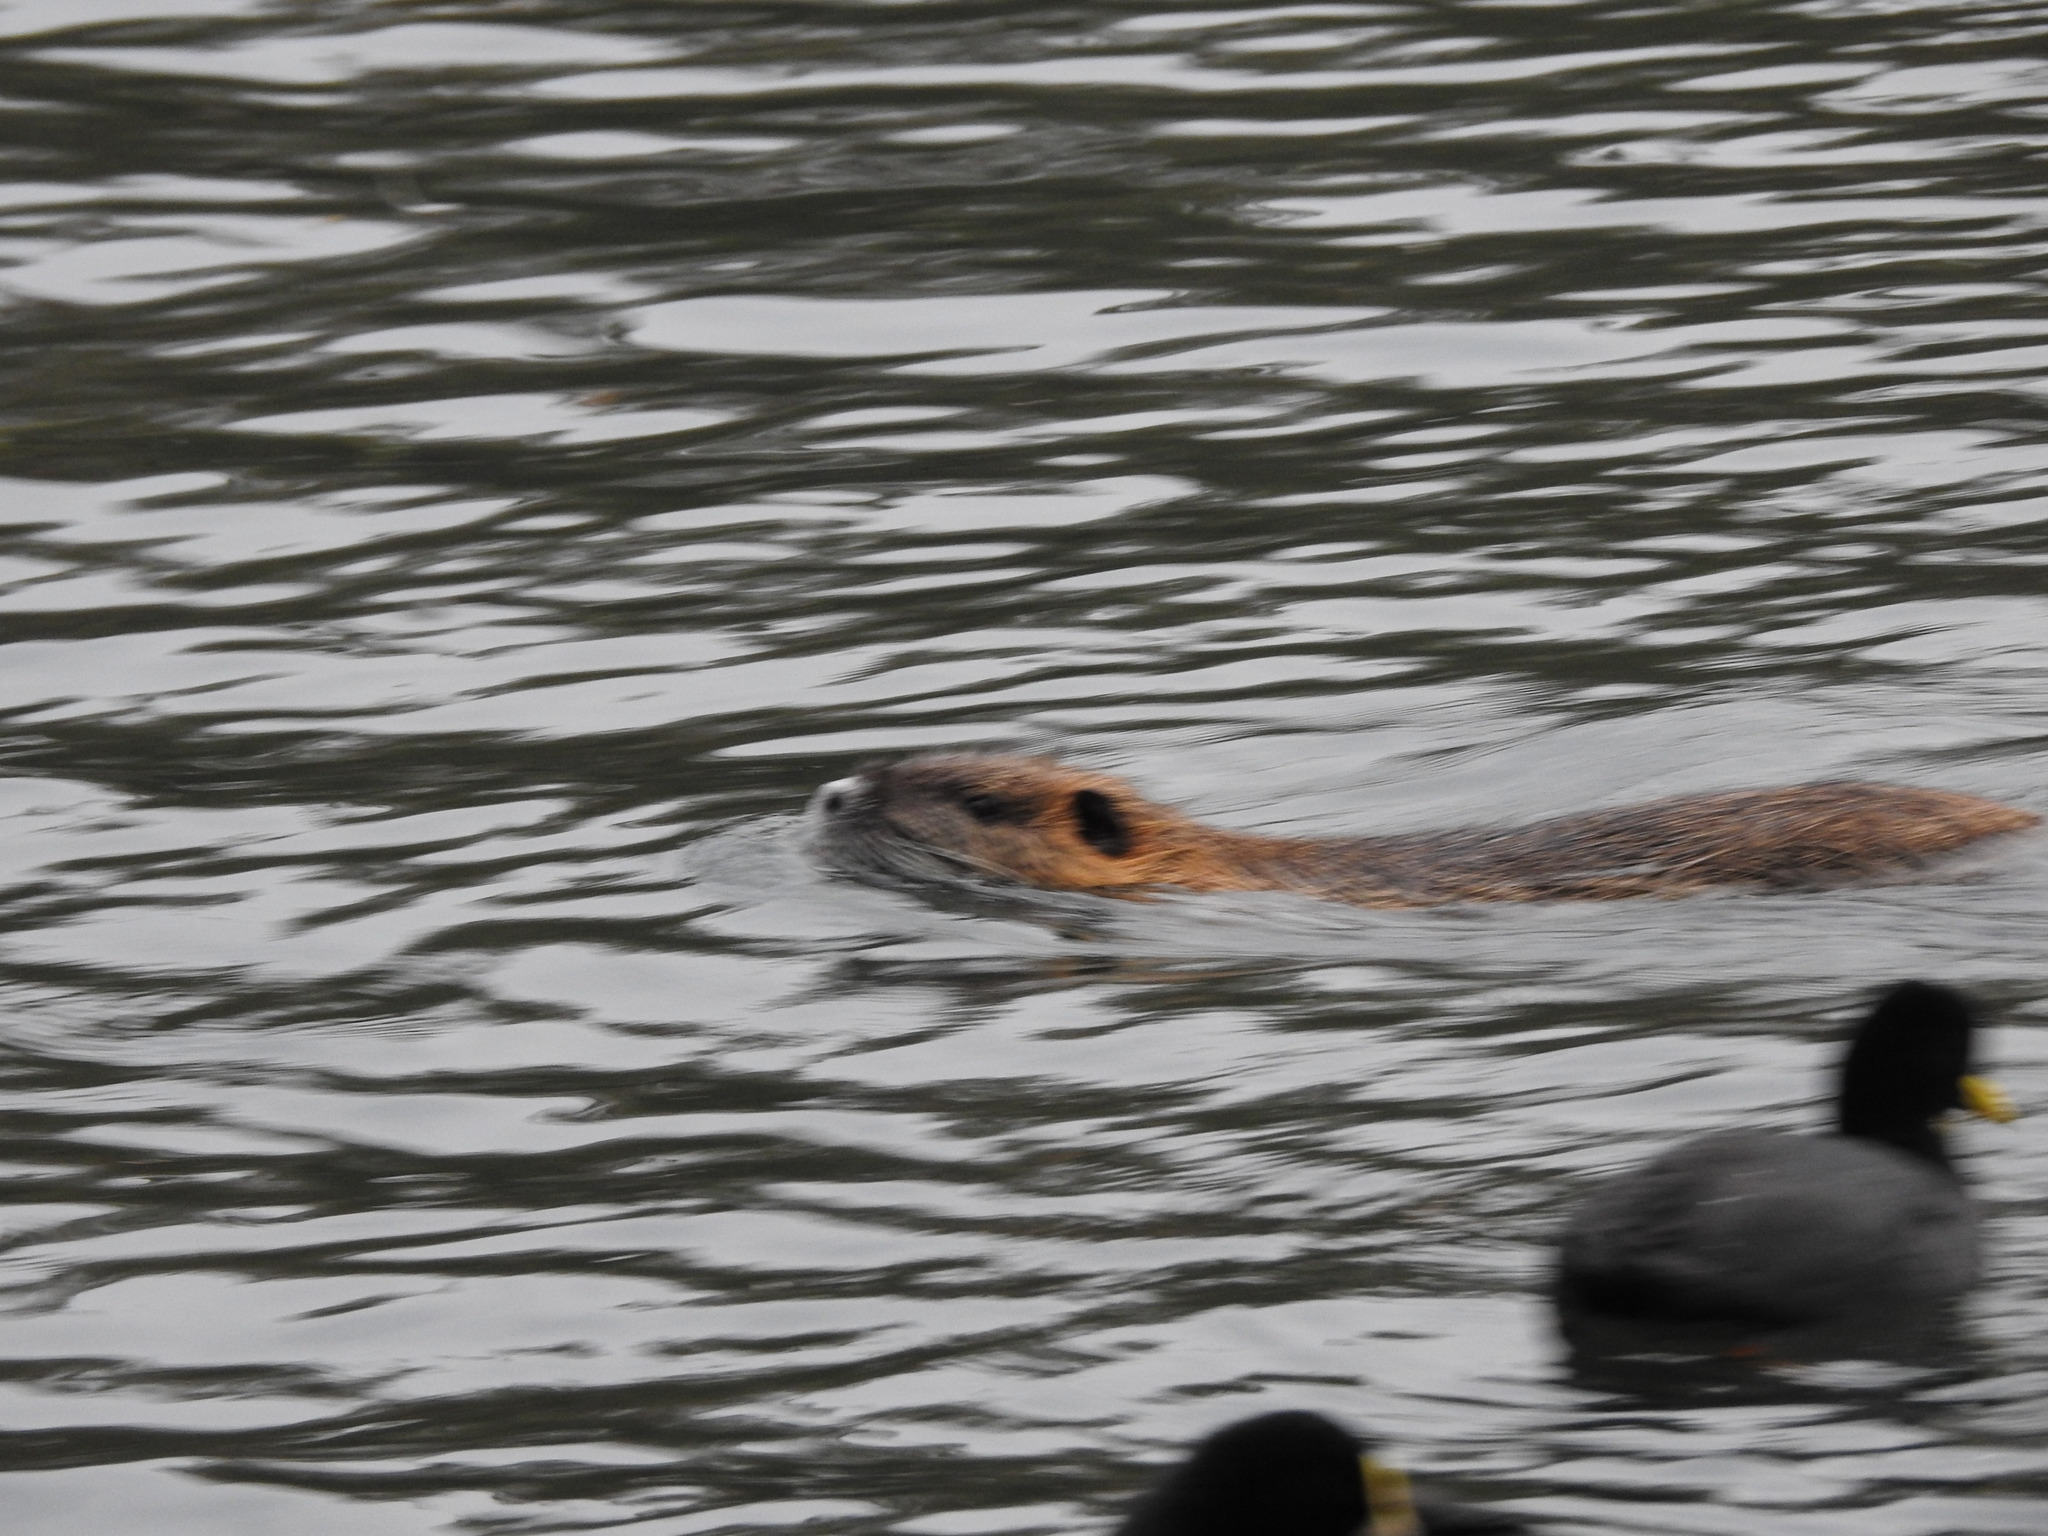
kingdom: Animalia
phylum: Chordata
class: Mammalia
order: Rodentia
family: Myocastoridae
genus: Myocastor
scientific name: Myocastor coypus
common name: Coypu
